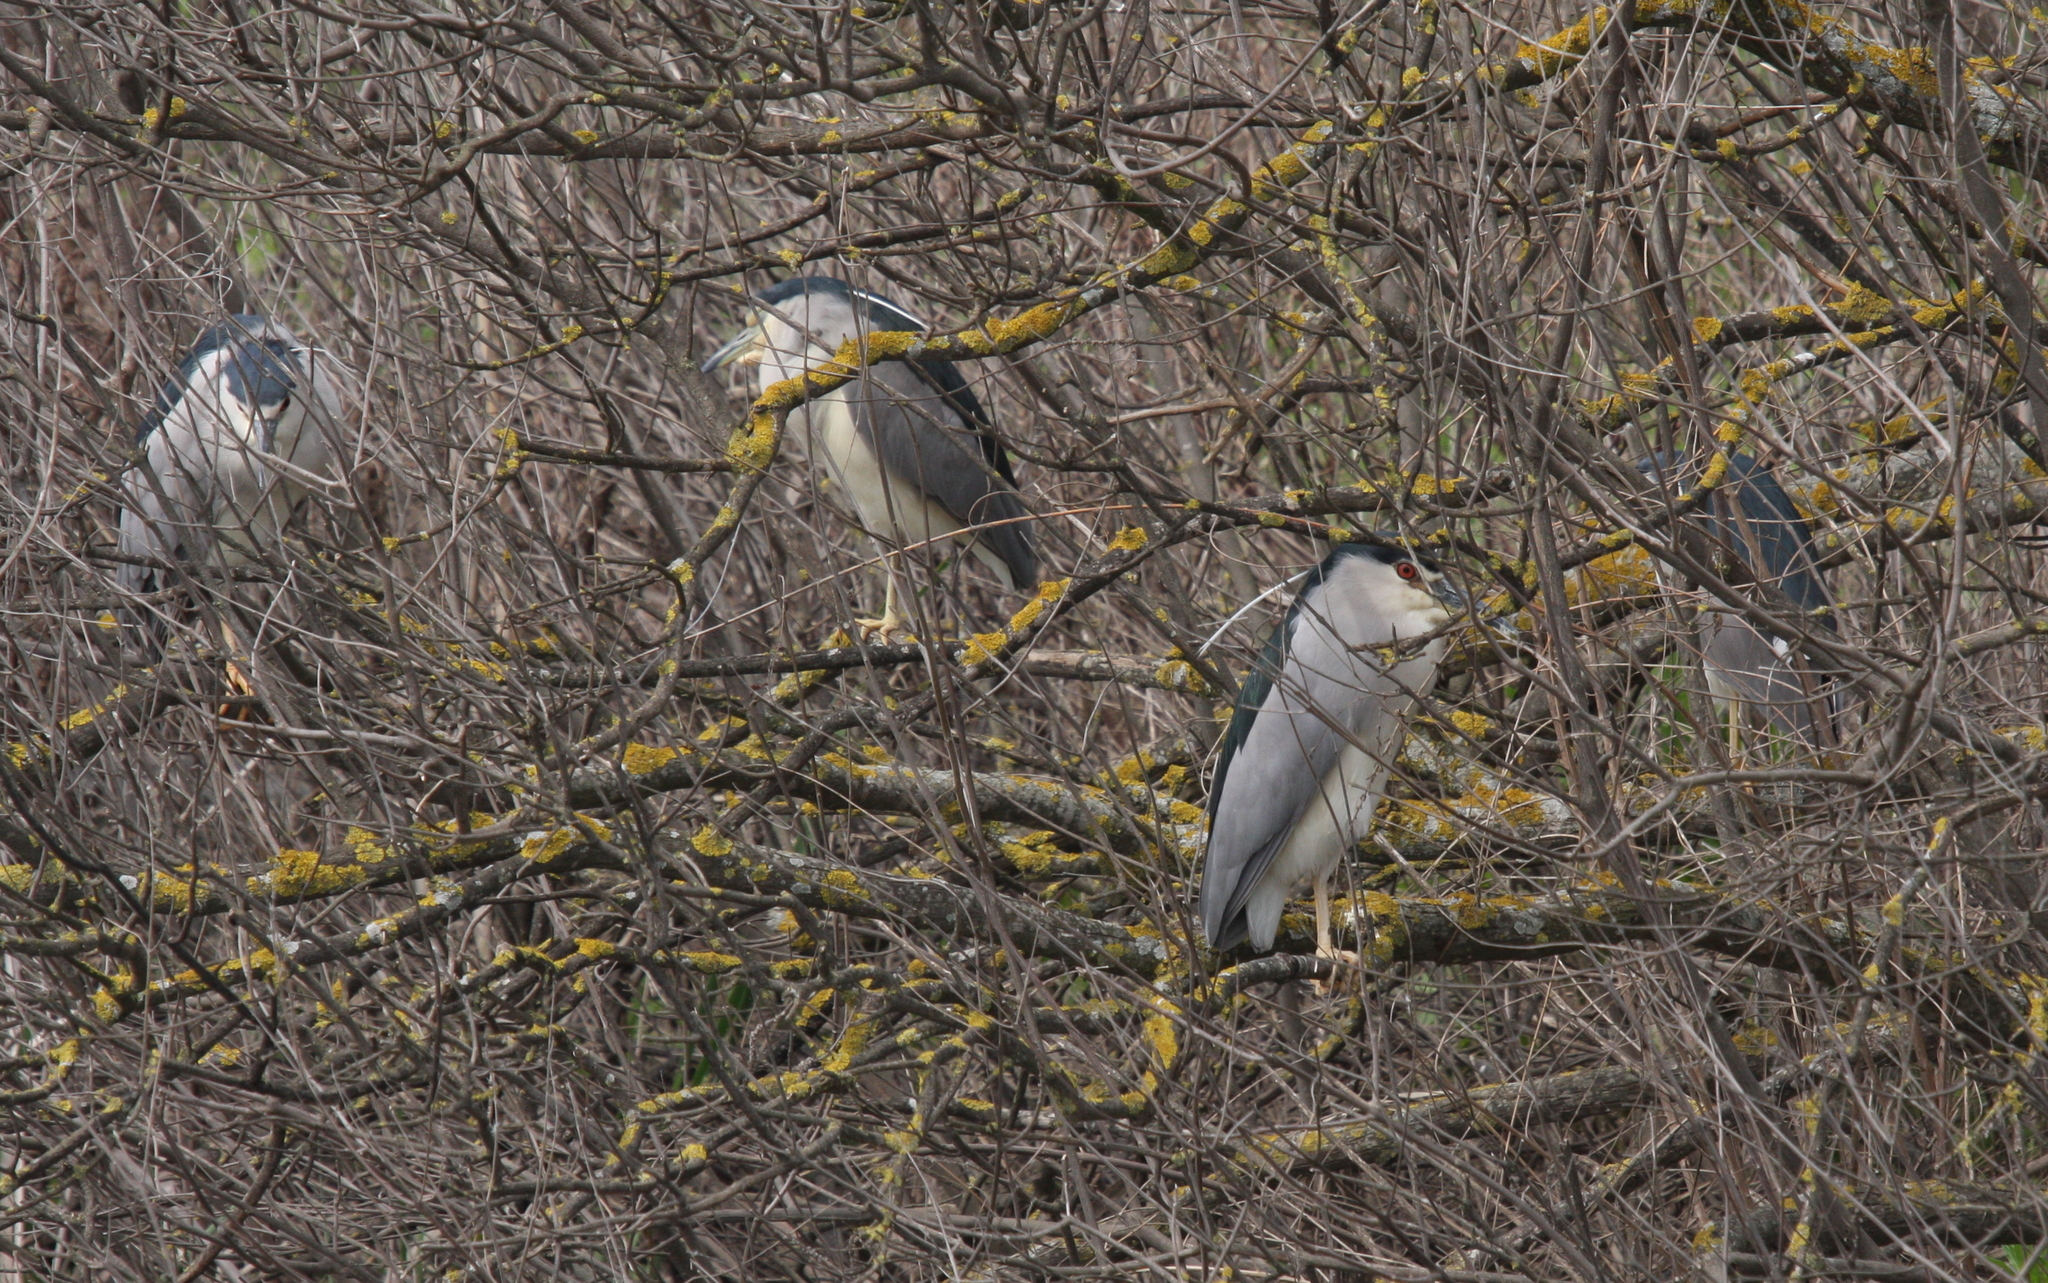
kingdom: Animalia
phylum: Chordata
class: Aves
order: Pelecaniformes
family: Ardeidae
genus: Nycticorax
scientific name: Nycticorax nycticorax
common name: Black-crowned night heron
